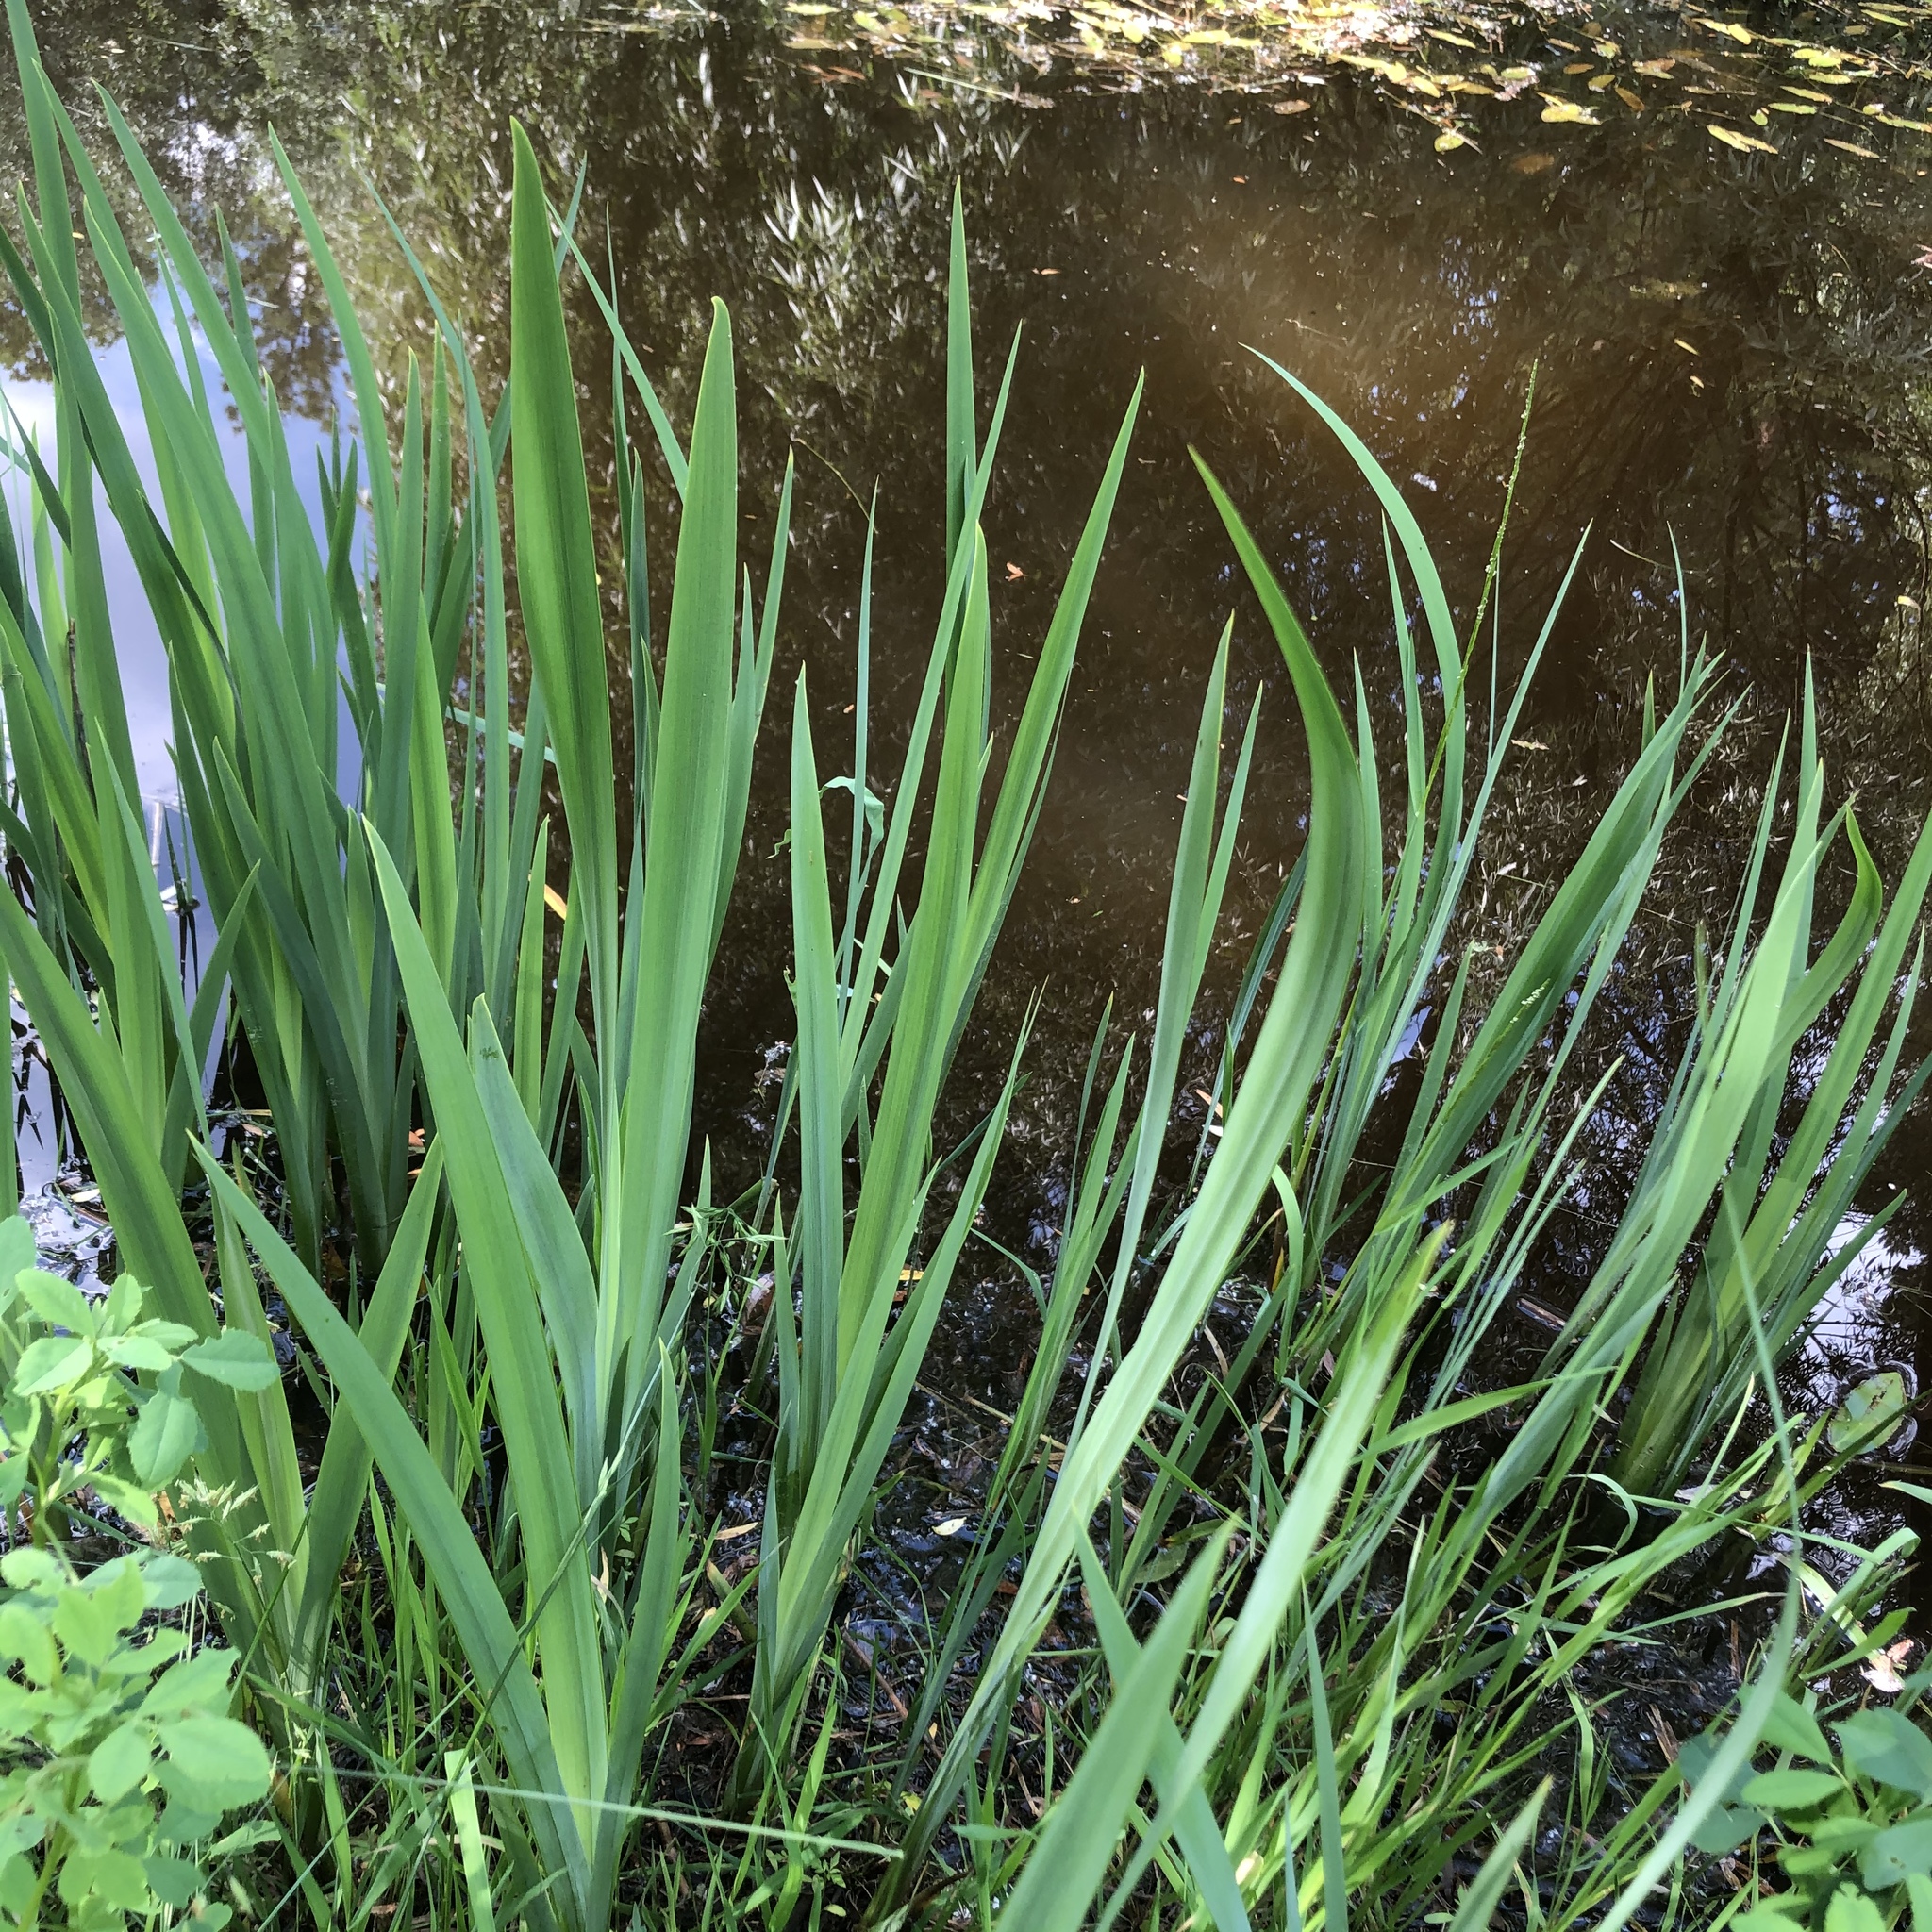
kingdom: Plantae
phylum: Tracheophyta
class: Liliopsida
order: Asparagales
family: Iridaceae
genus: Iris
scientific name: Iris pseudacorus
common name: Yellow flag
